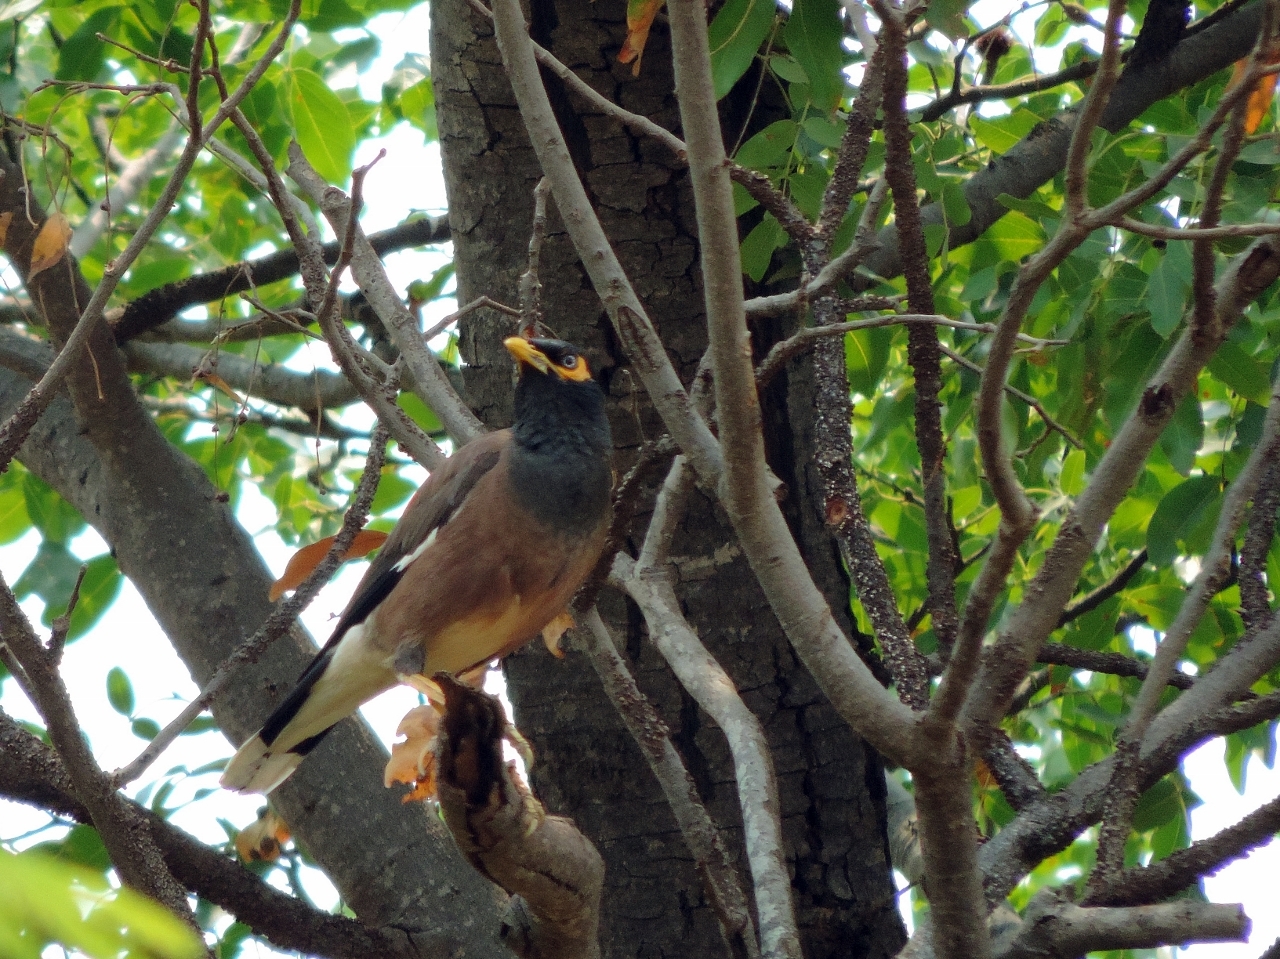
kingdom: Animalia
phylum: Chordata
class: Aves
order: Passeriformes
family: Sturnidae
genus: Acridotheres
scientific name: Acridotheres tristis
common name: Common myna
